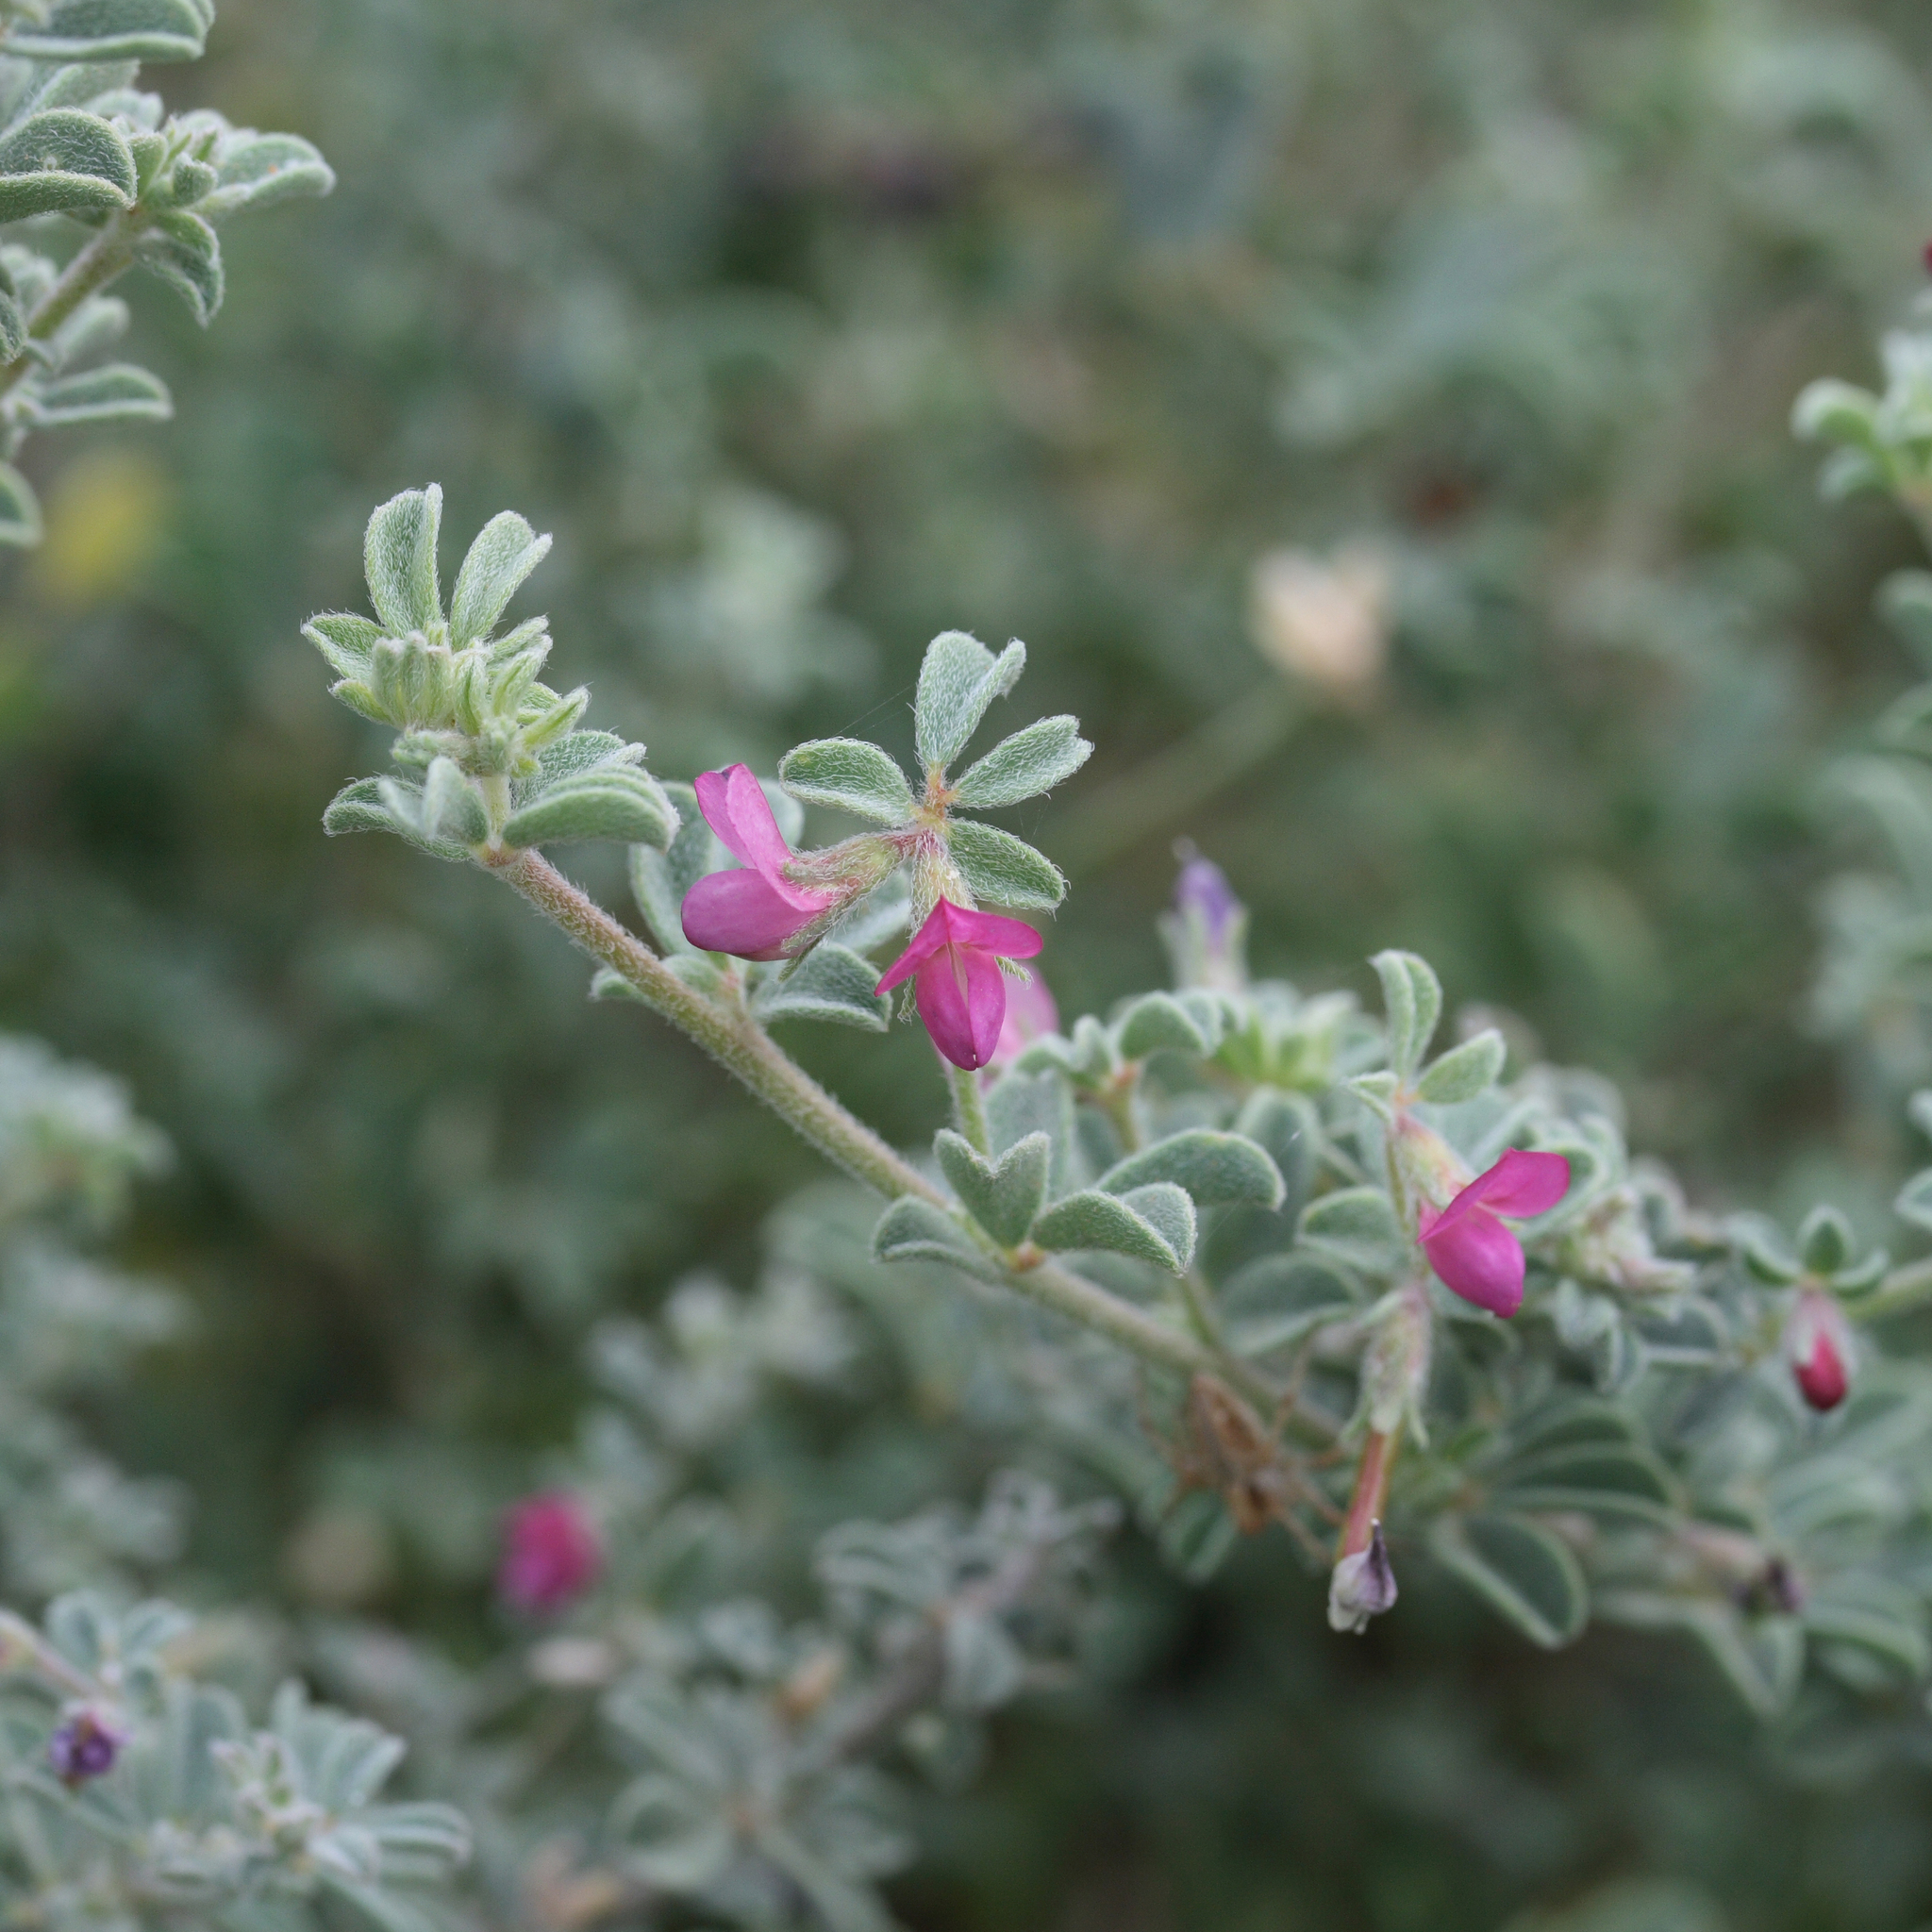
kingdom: Plantae
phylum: Tracheophyta
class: Magnoliopsida
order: Fabales
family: Fabaceae
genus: Lotus
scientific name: Lotus cruentus
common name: Red bird's-foot trefoil
